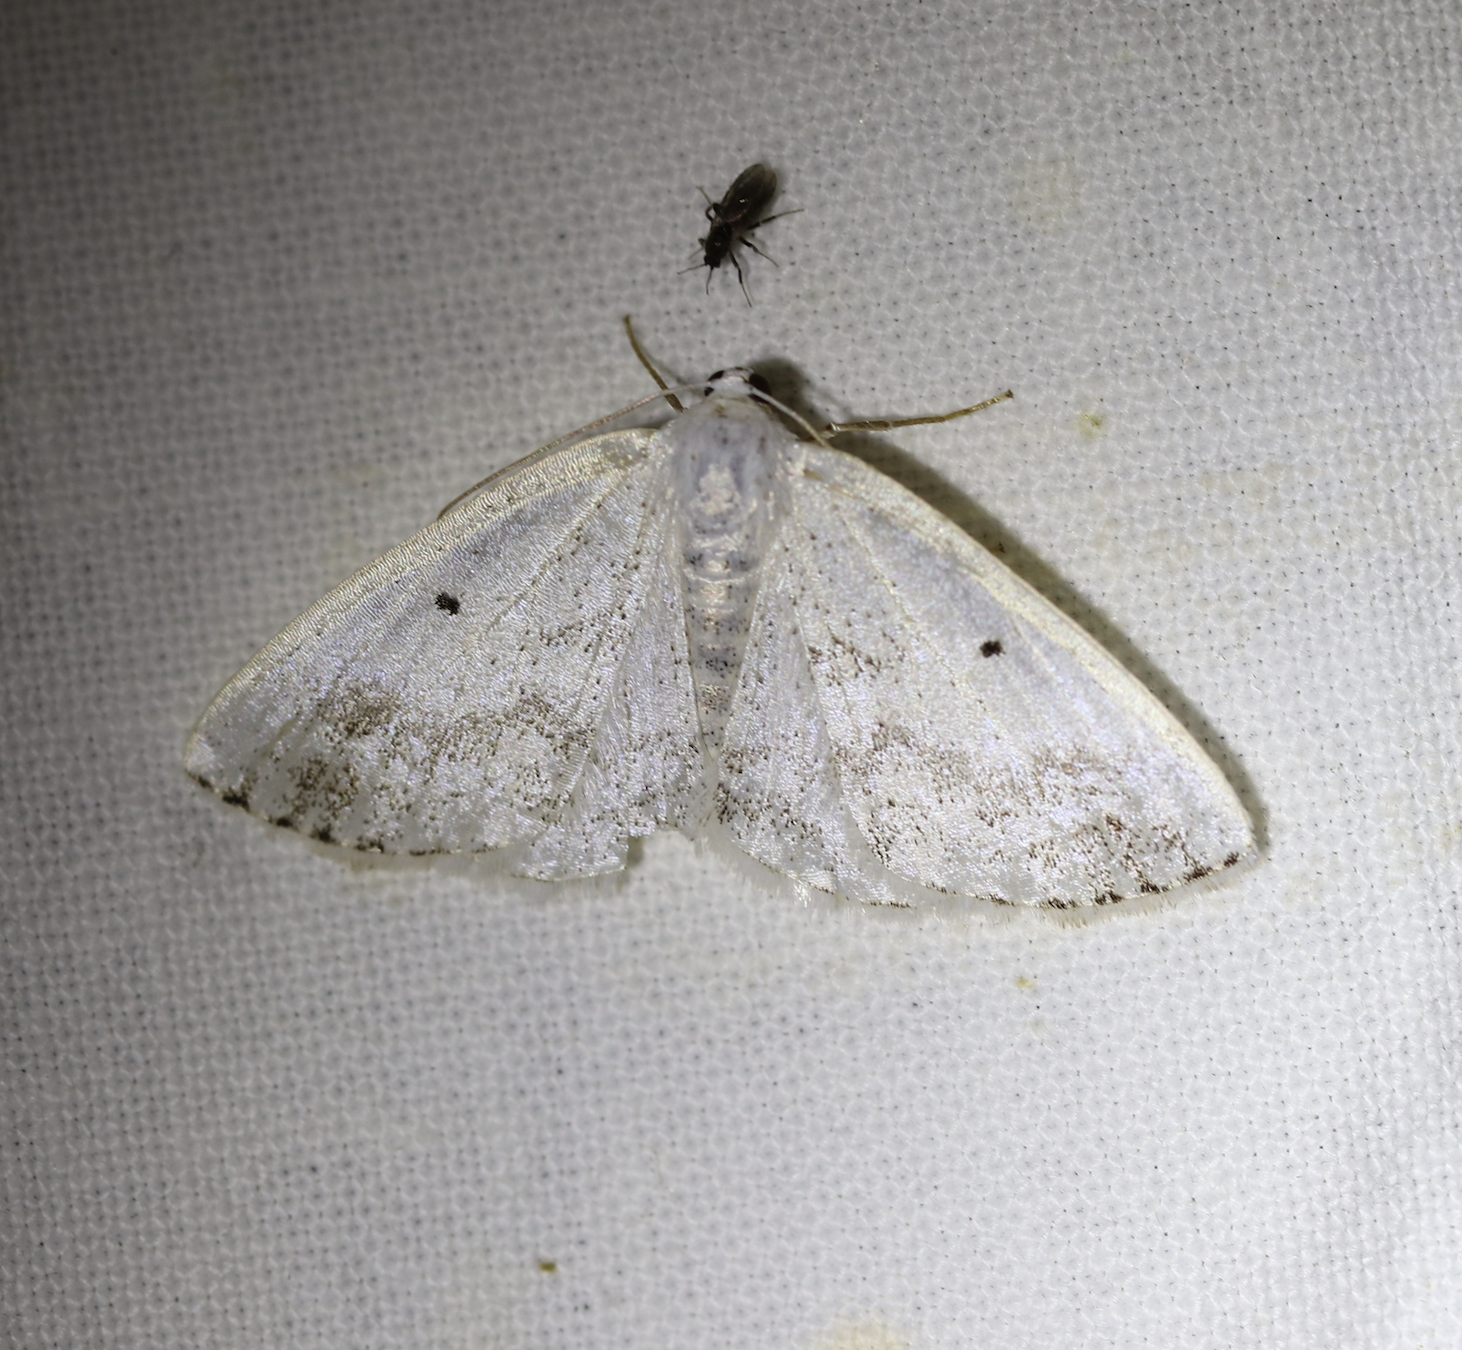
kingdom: Animalia
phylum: Arthropoda
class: Insecta
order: Lepidoptera
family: Geometridae
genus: Lomographa
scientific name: Lomographa temerata
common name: Clouded silver
